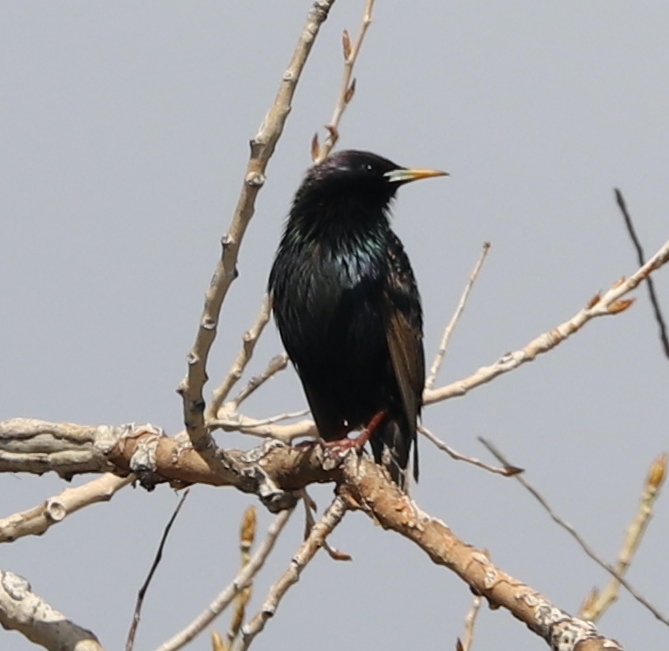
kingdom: Animalia
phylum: Chordata
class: Aves
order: Passeriformes
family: Sturnidae
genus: Sturnus
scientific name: Sturnus vulgaris
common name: Common starling
